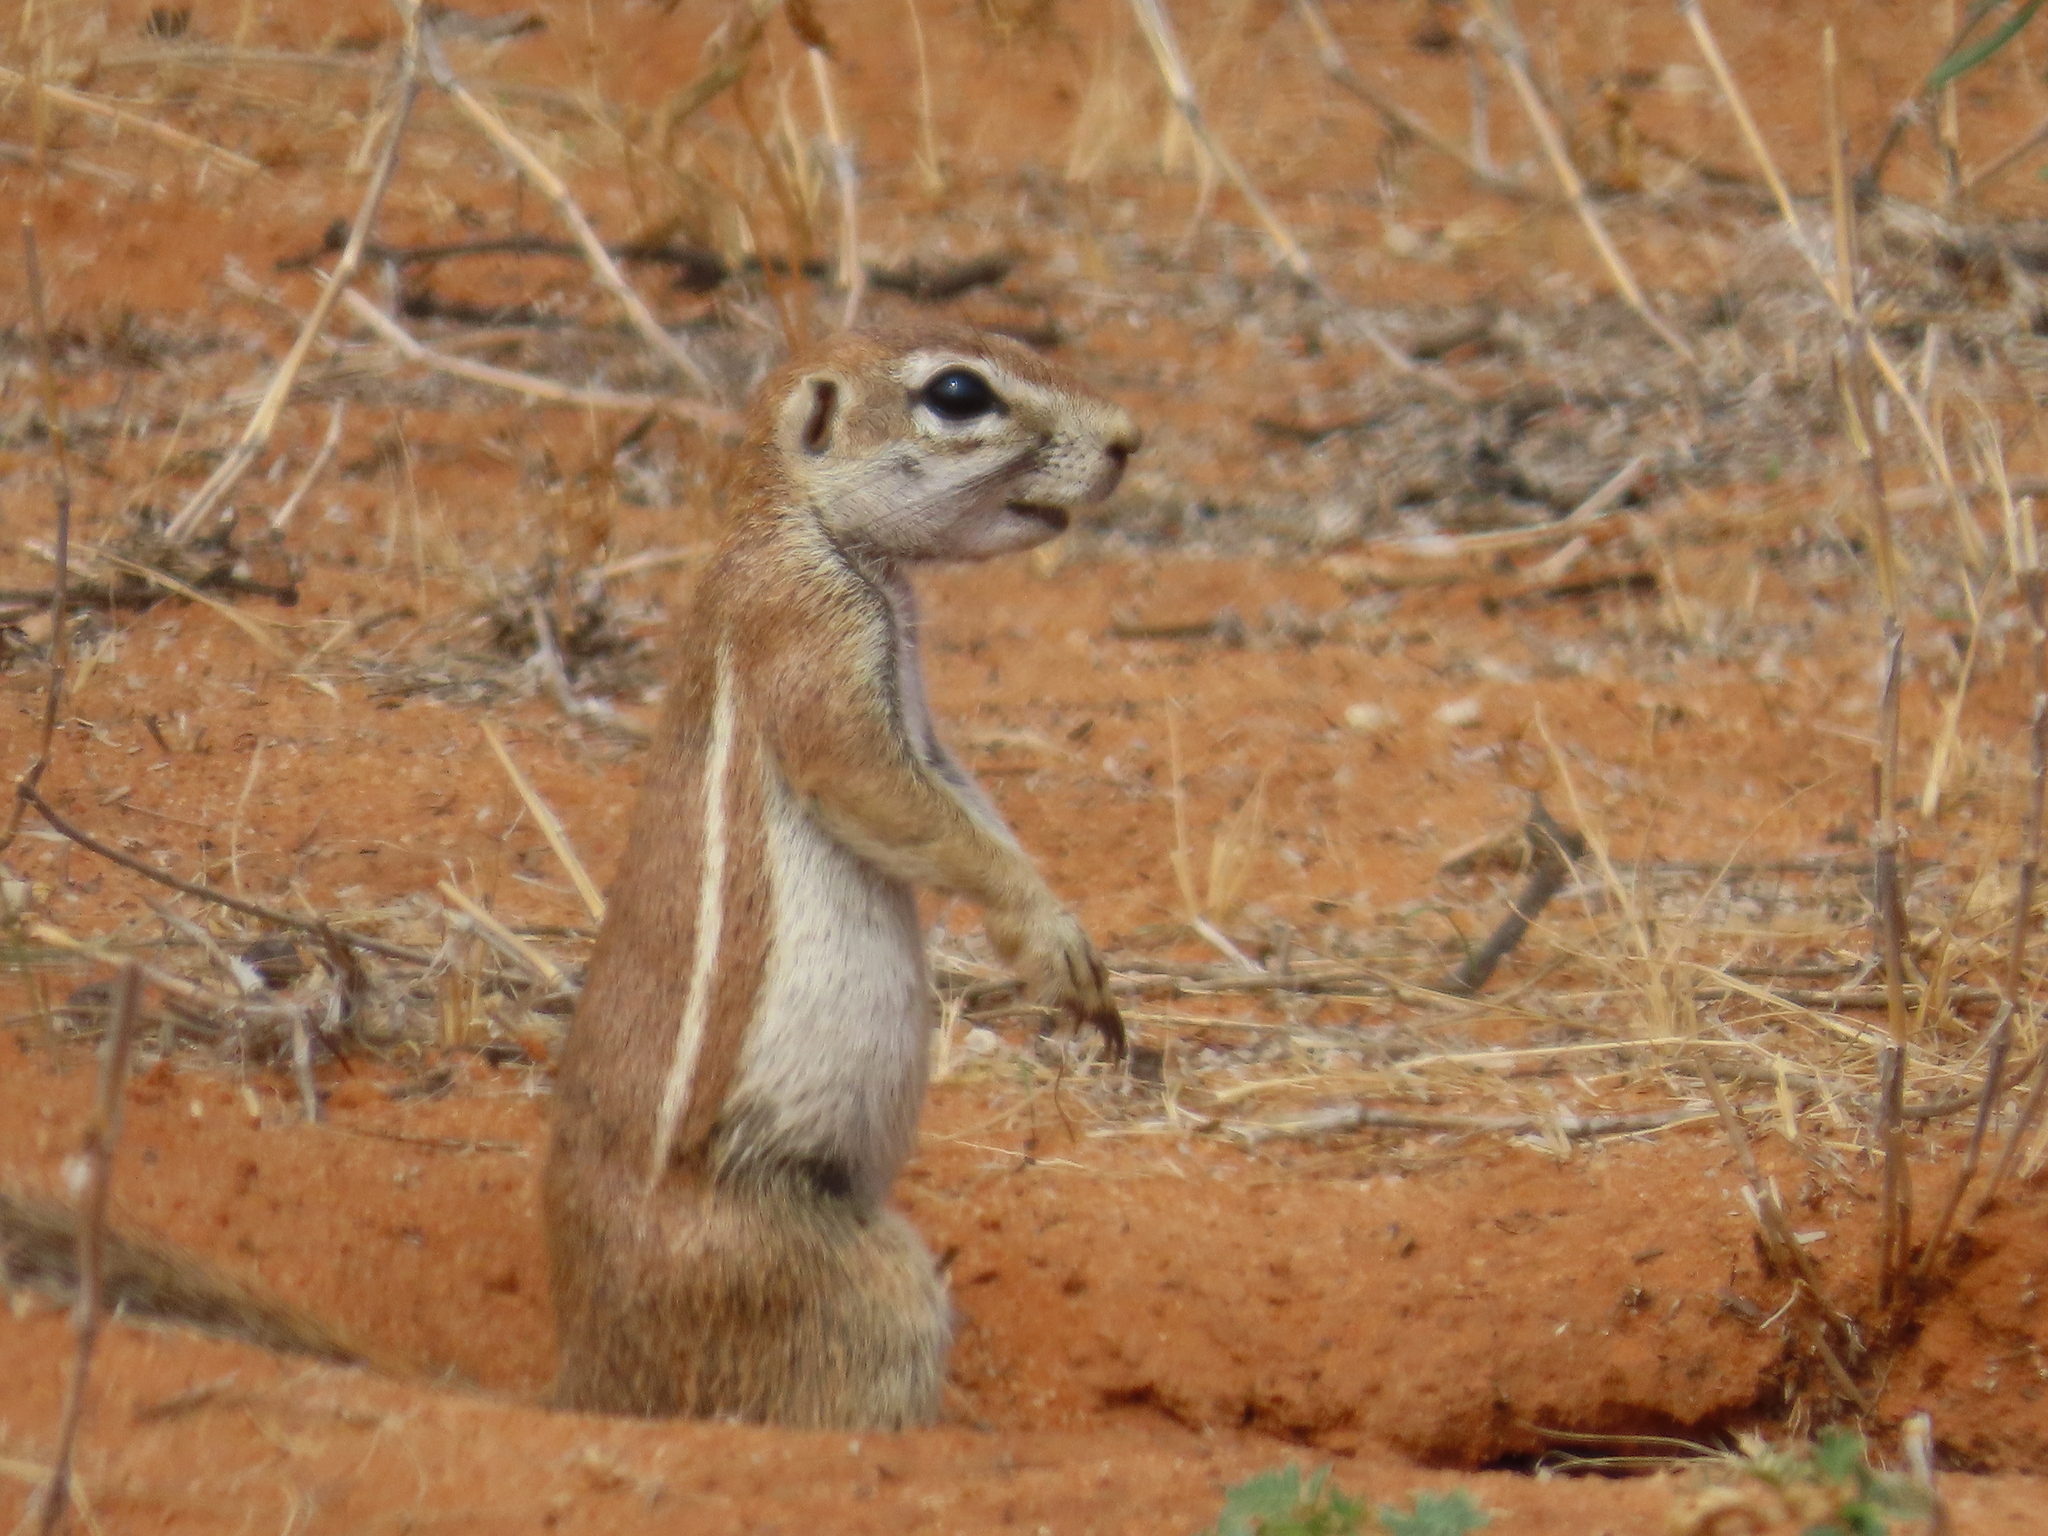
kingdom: Animalia
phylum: Chordata
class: Mammalia
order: Rodentia
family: Sciuridae
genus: Xerus
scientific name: Xerus inauris
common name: South african ground squirrel
